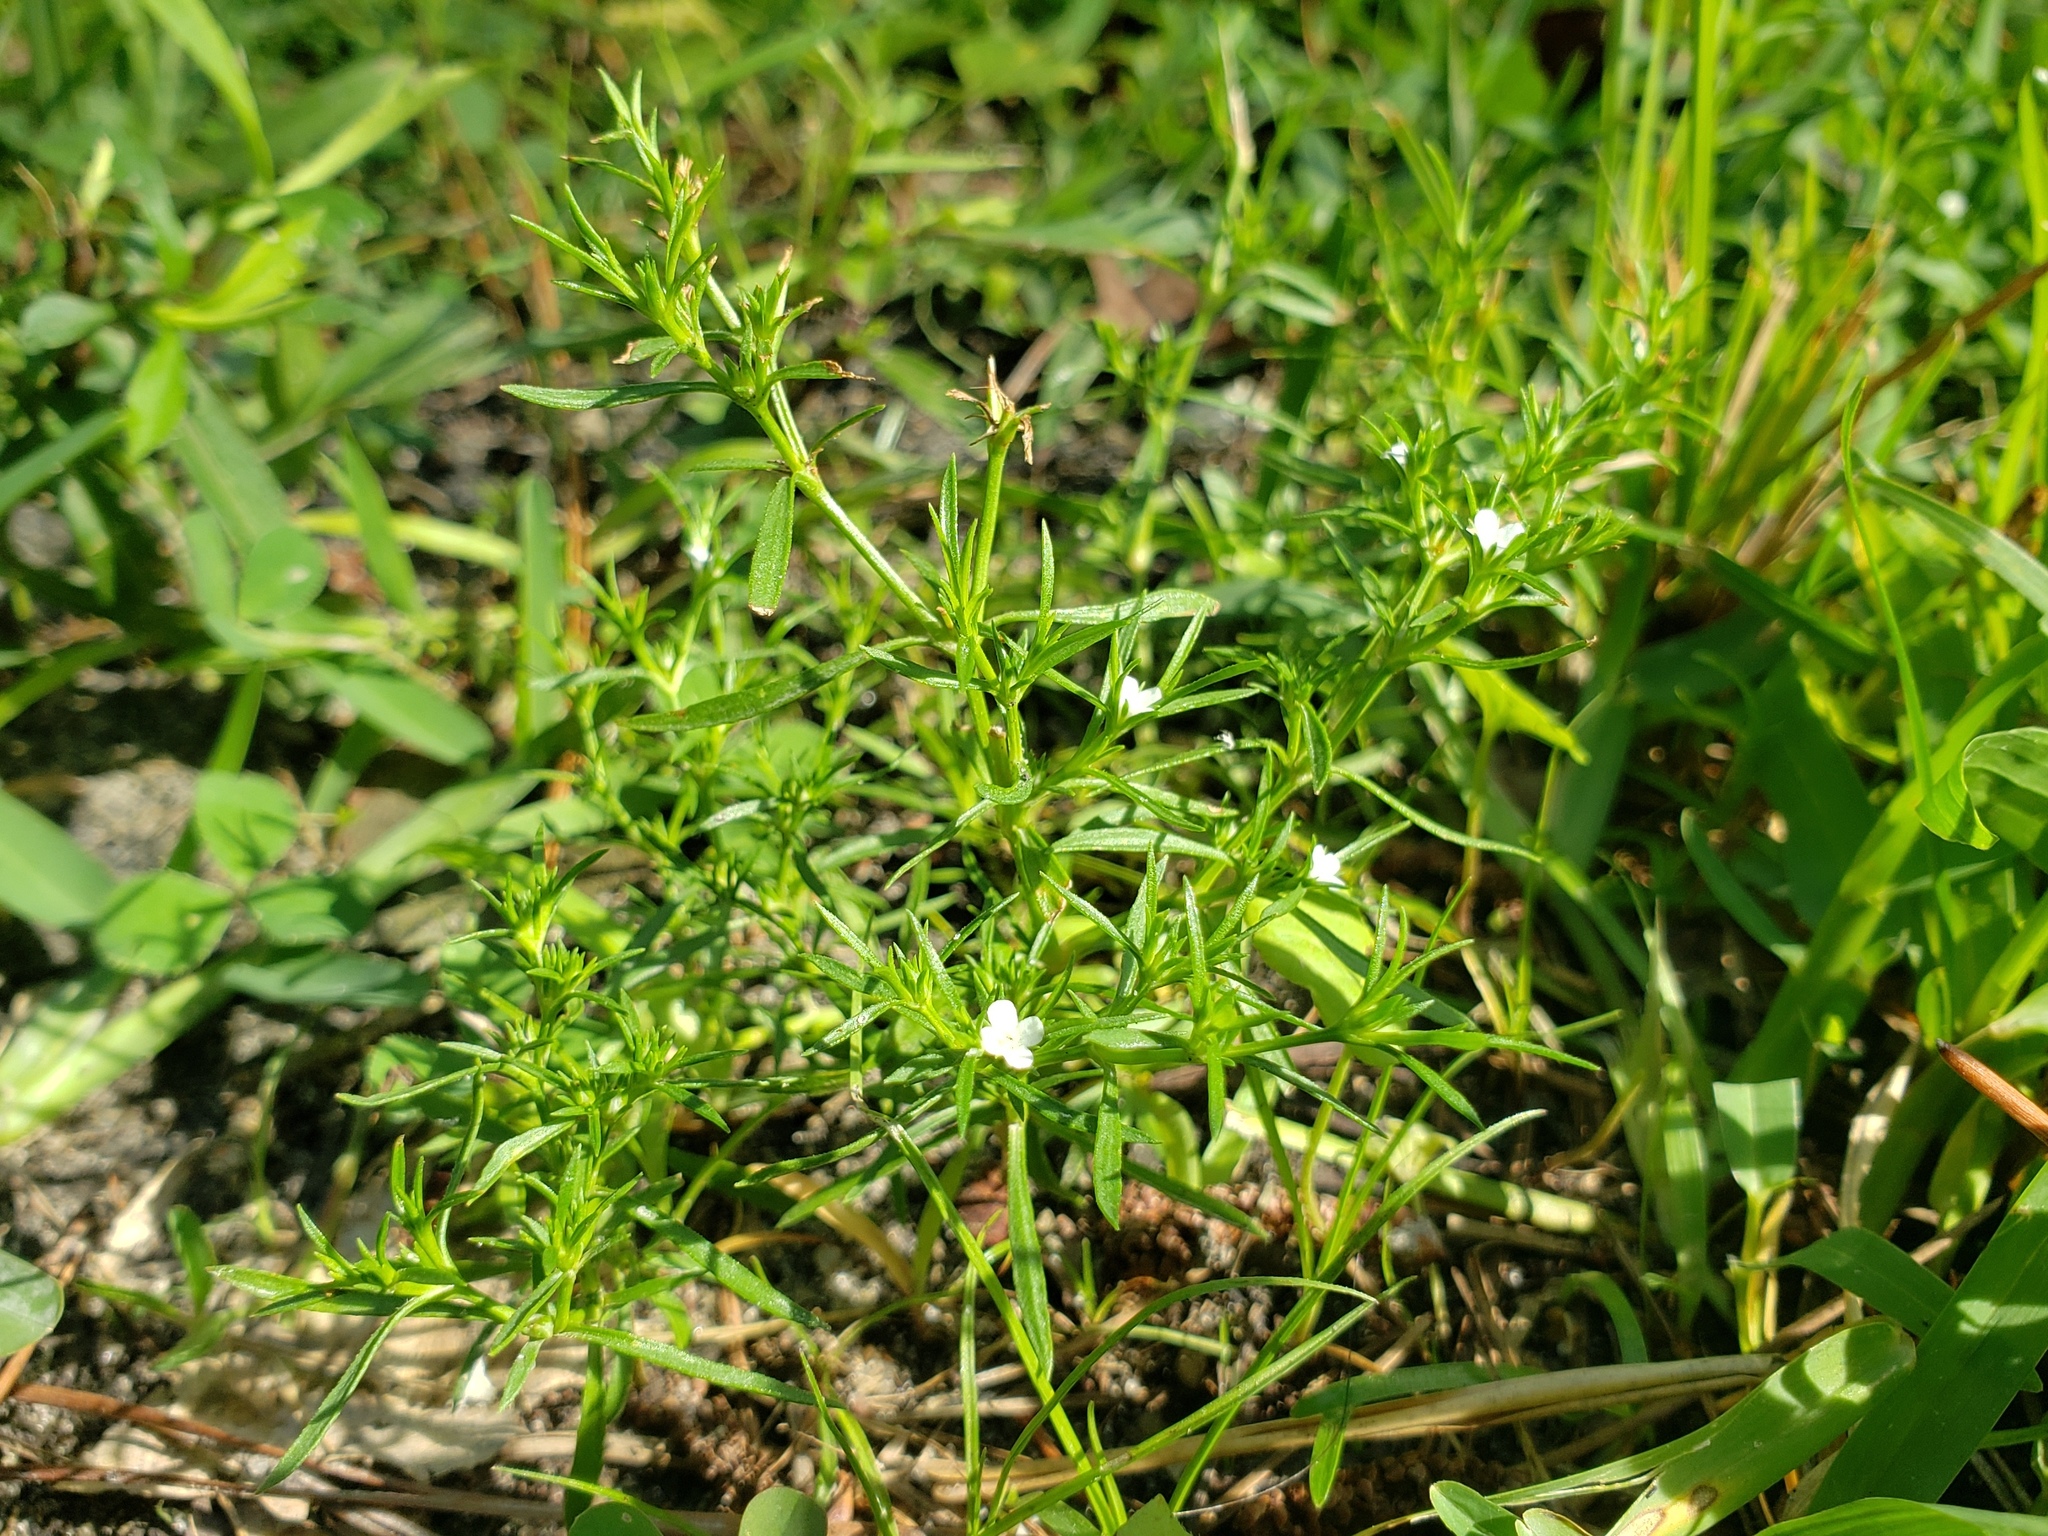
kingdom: Plantae
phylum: Tracheophyta
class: Magnoliopsida
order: Lamiales
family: Tetrachondraceae
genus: Polypremum
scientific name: Polypremum procumbens
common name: Juniper-leaf
